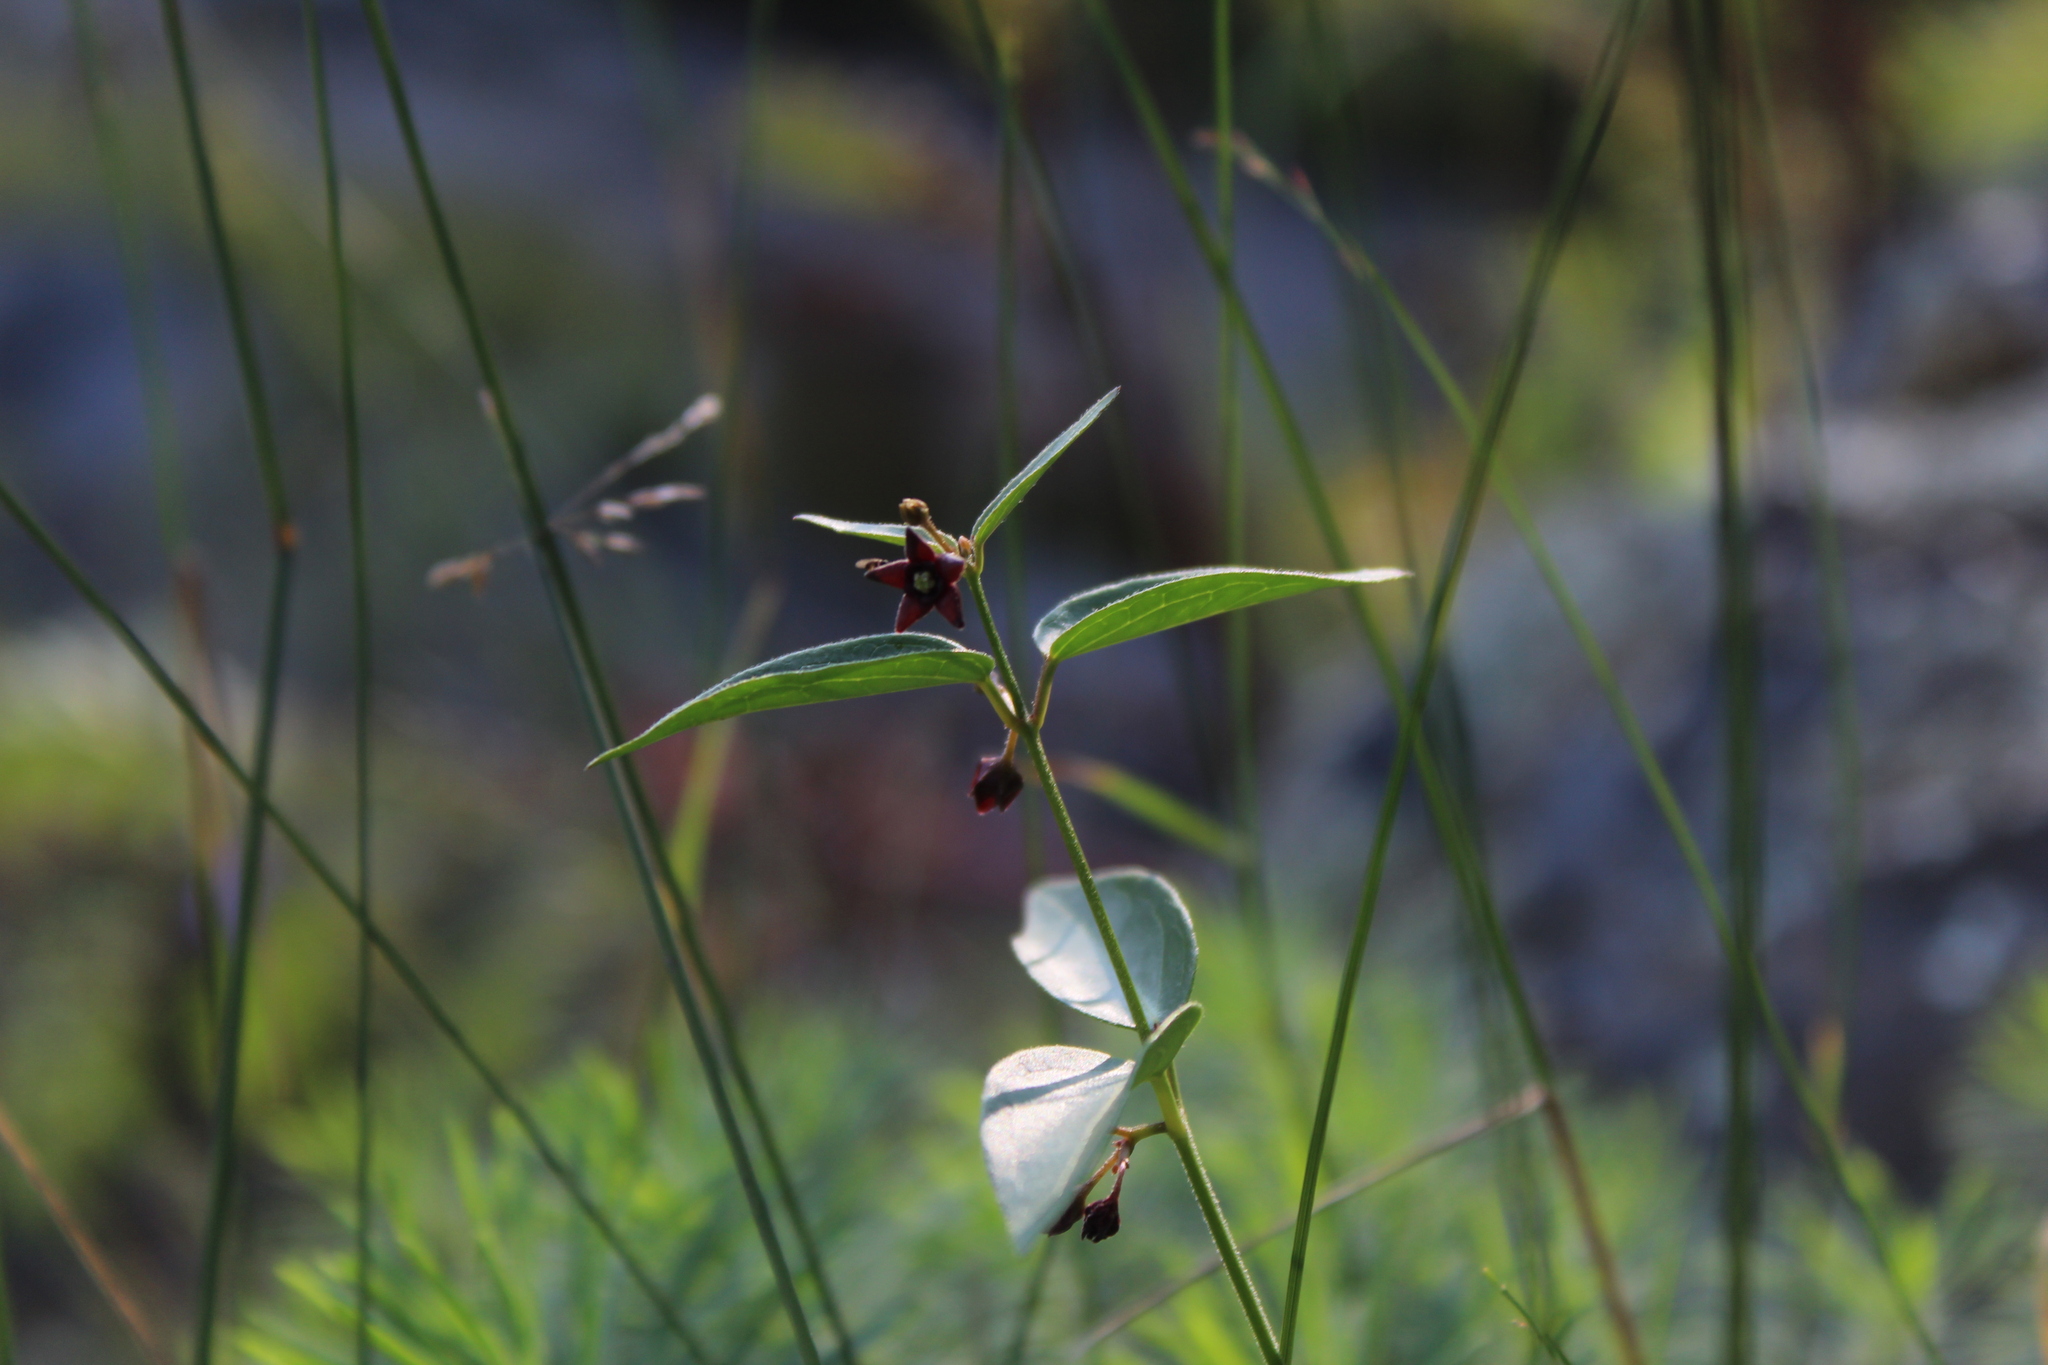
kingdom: Plantae
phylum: Tracheophyta
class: Magnoliopsida
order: Gentianales
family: Apocynaceae
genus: Vincetoxicum
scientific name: Vincetoxicum nigrum
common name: Black swallow-wort
